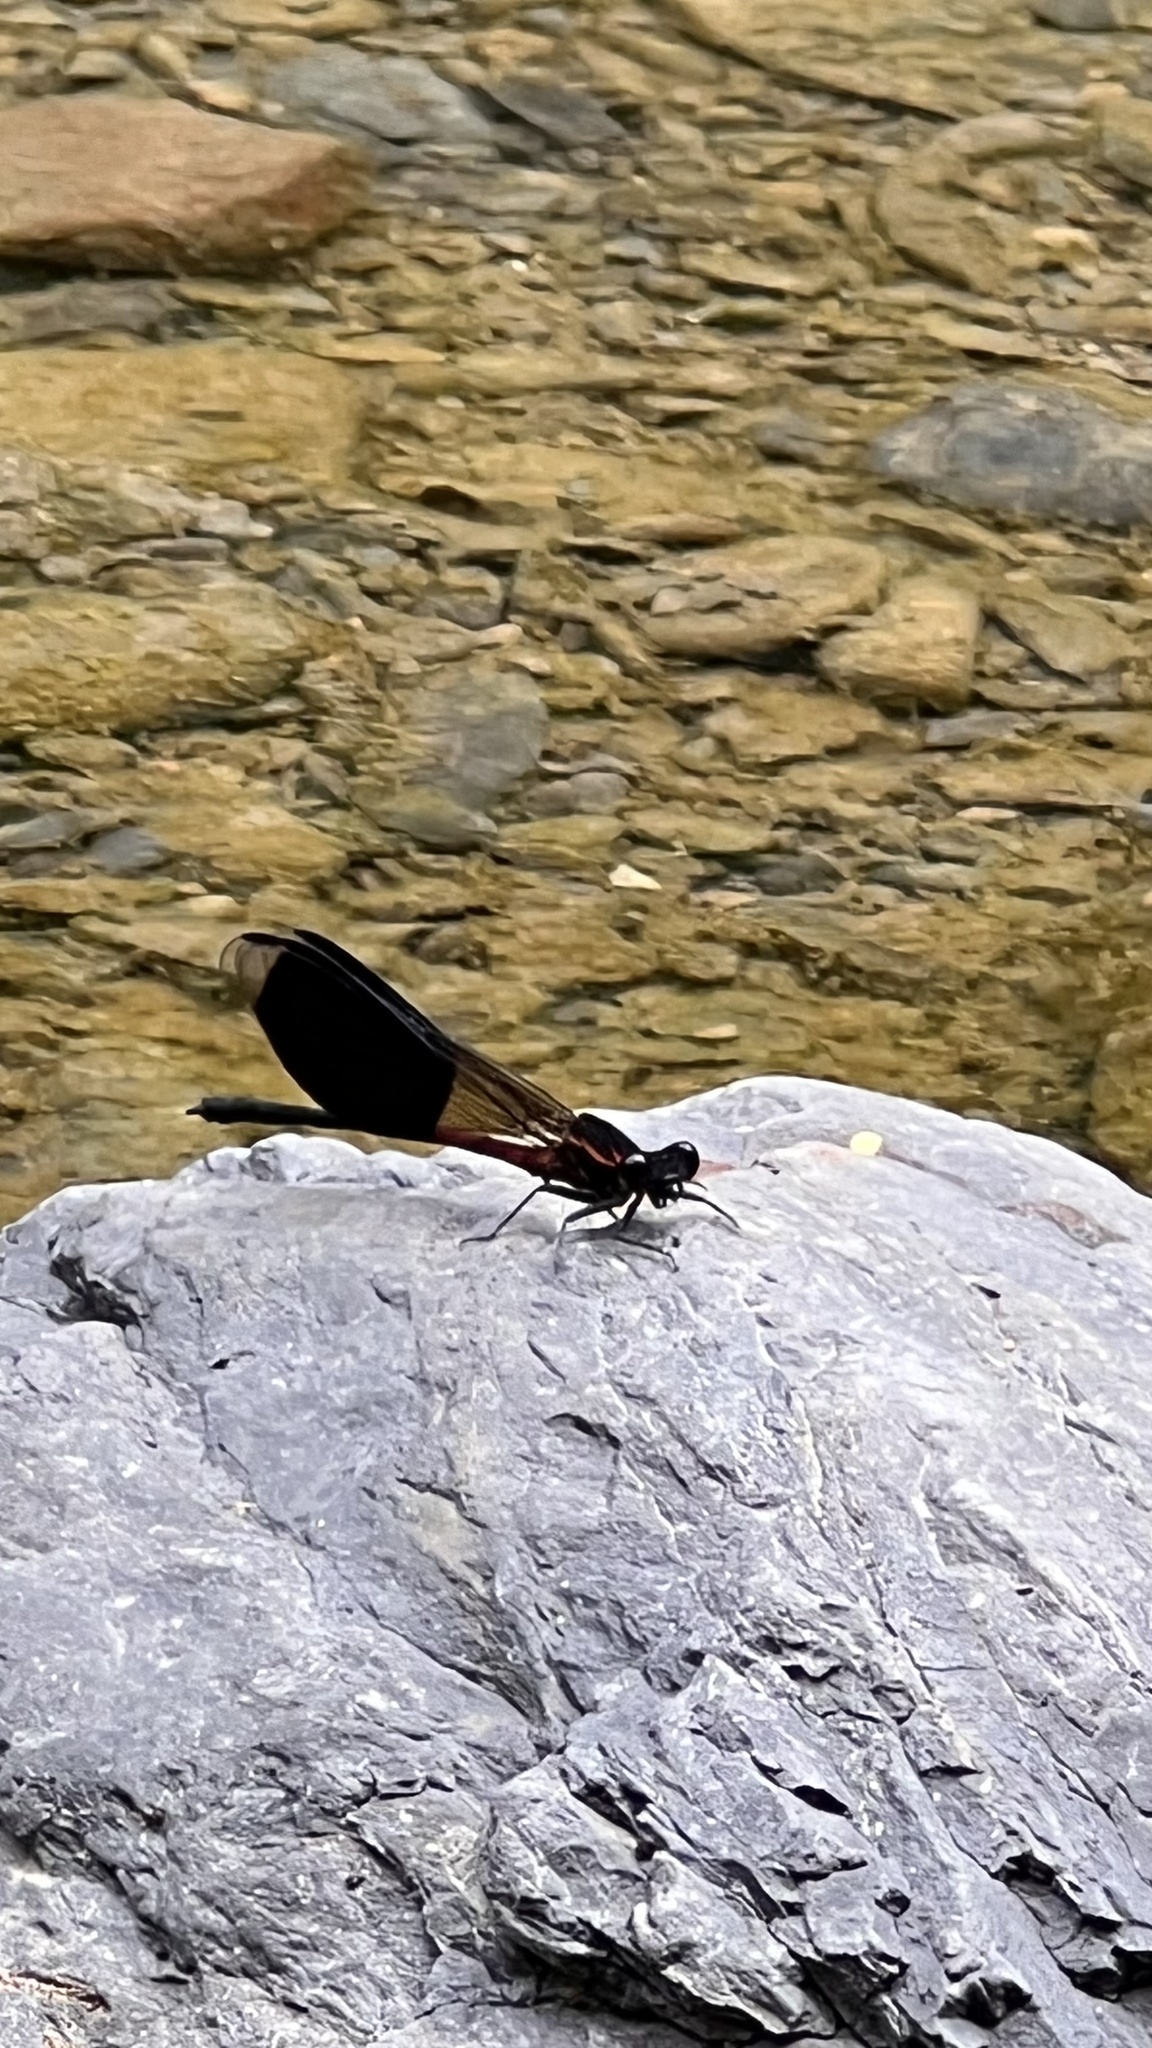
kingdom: Animalia
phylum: Arthropoda
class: Insecta
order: Odonata
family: Euphaeidae
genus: Euphaea
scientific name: Euphaea formosa
